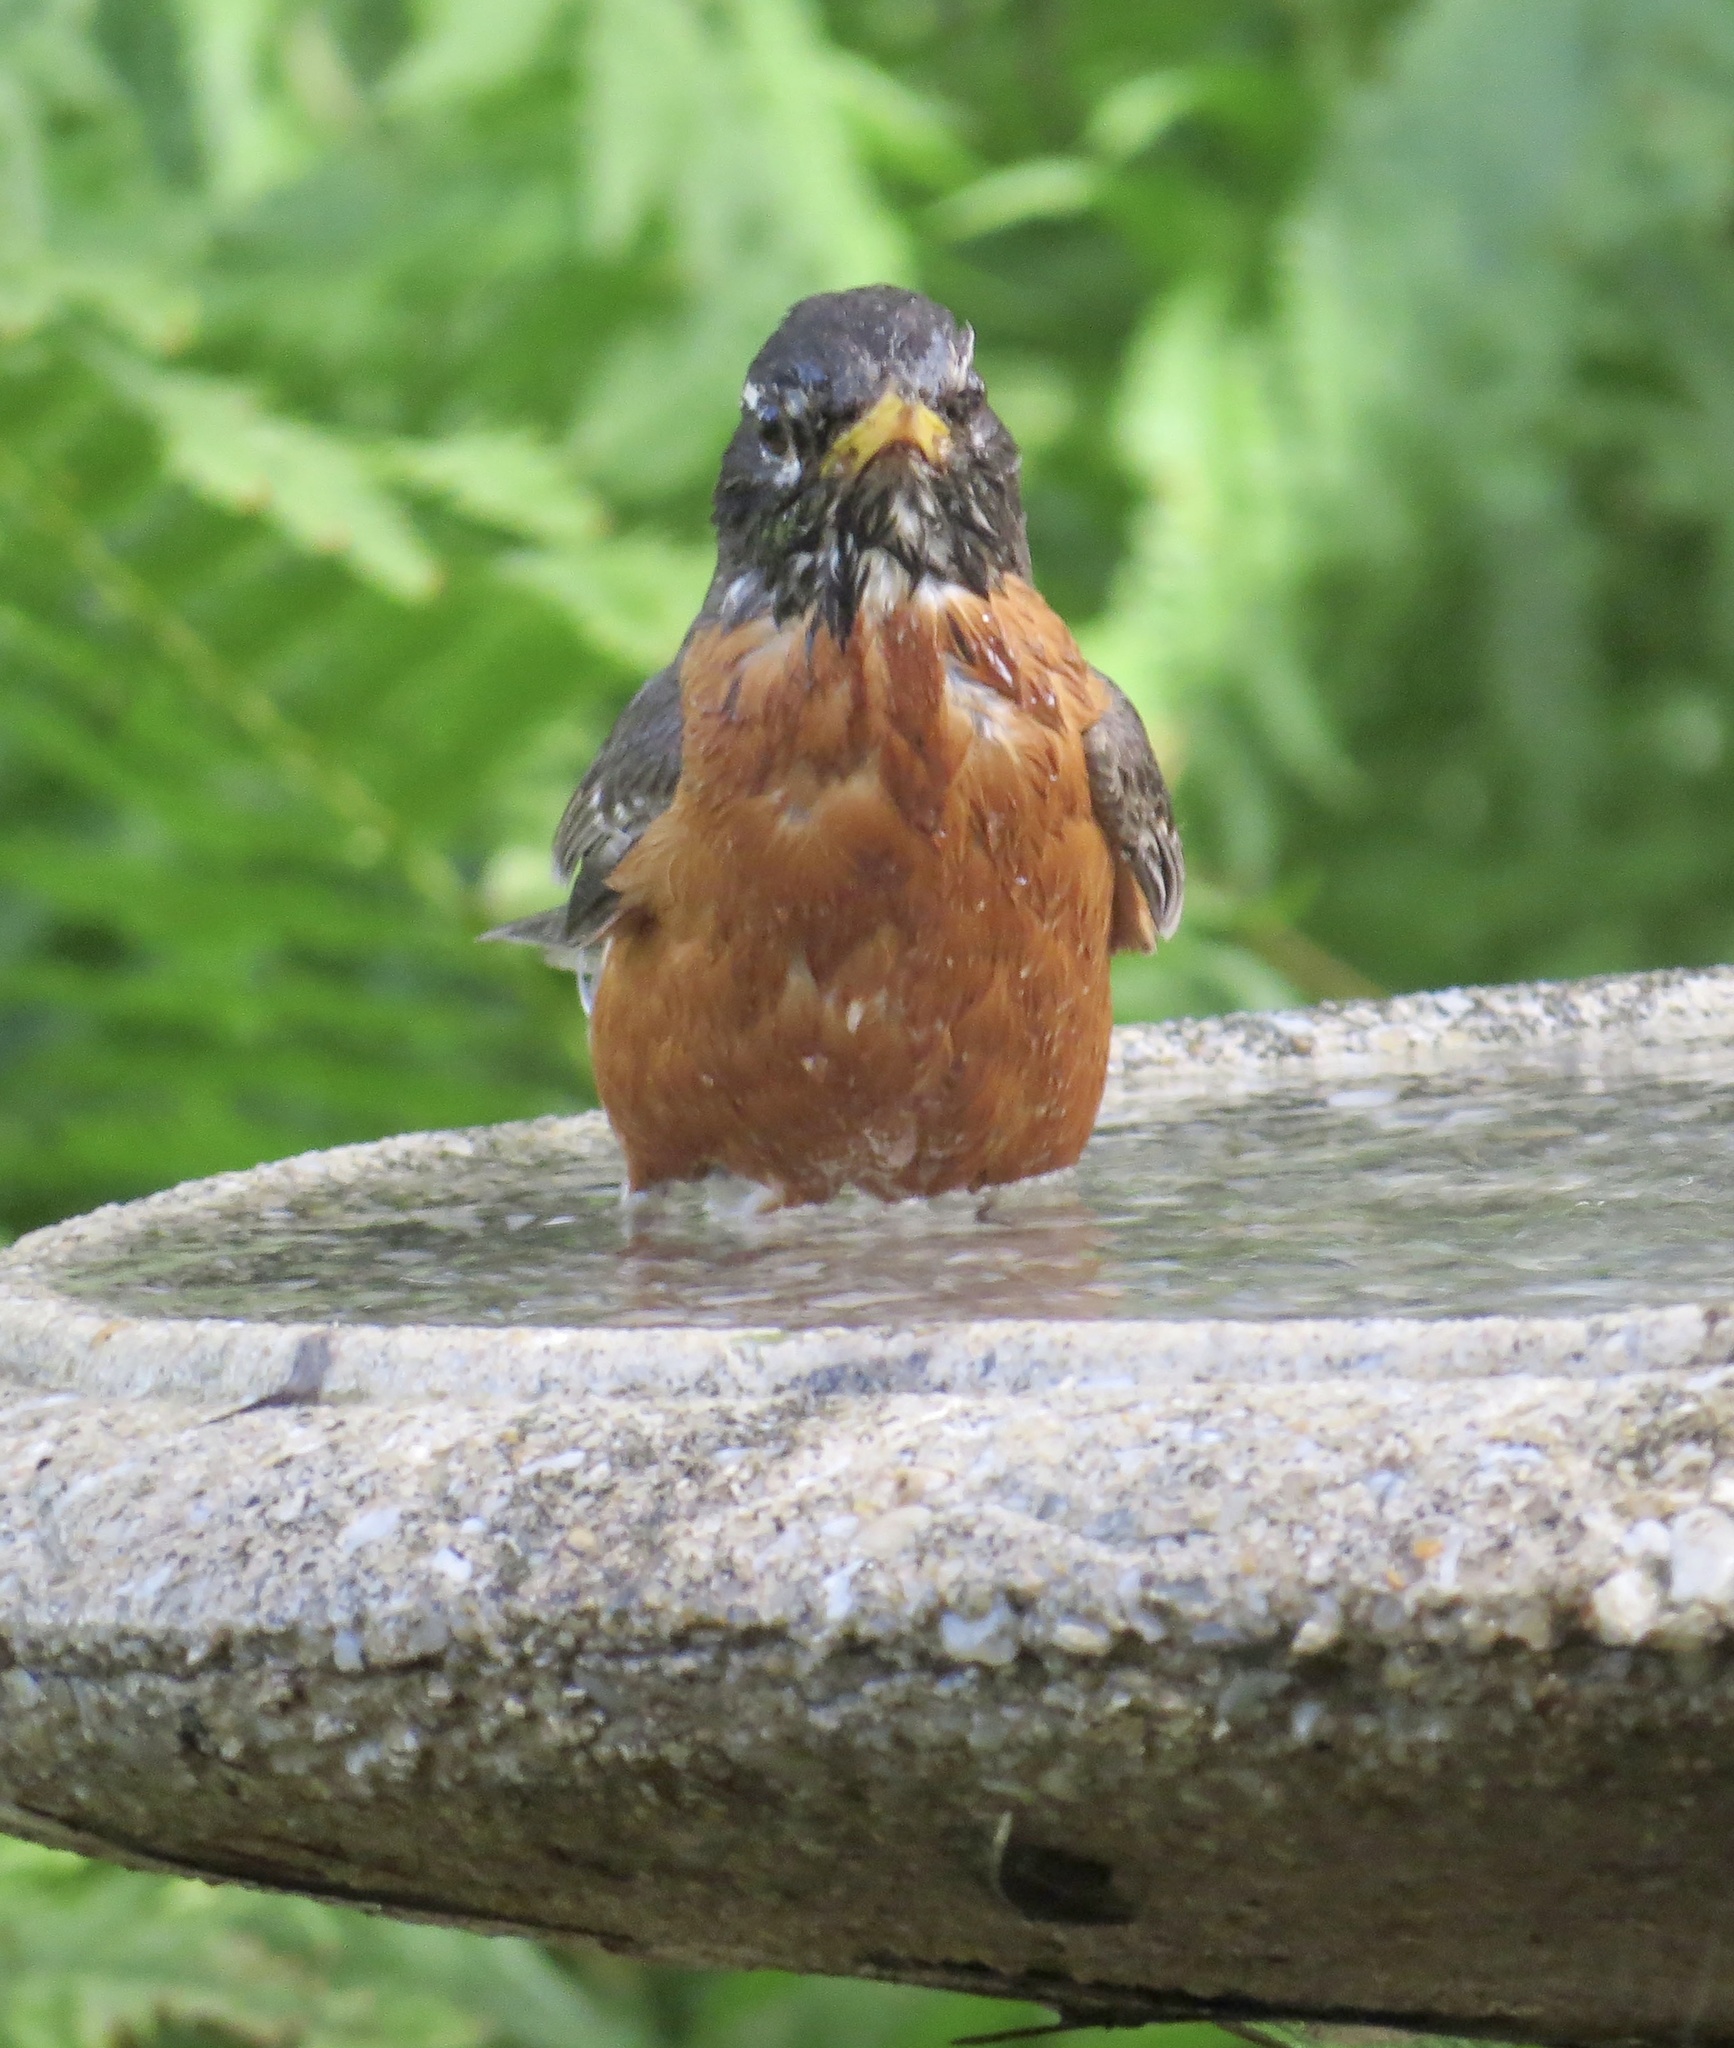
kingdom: Animalia
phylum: Chordata
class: Aves
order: Passeriformes
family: Turdidae
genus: Turdus
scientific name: Turdus migratorius
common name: American robin
